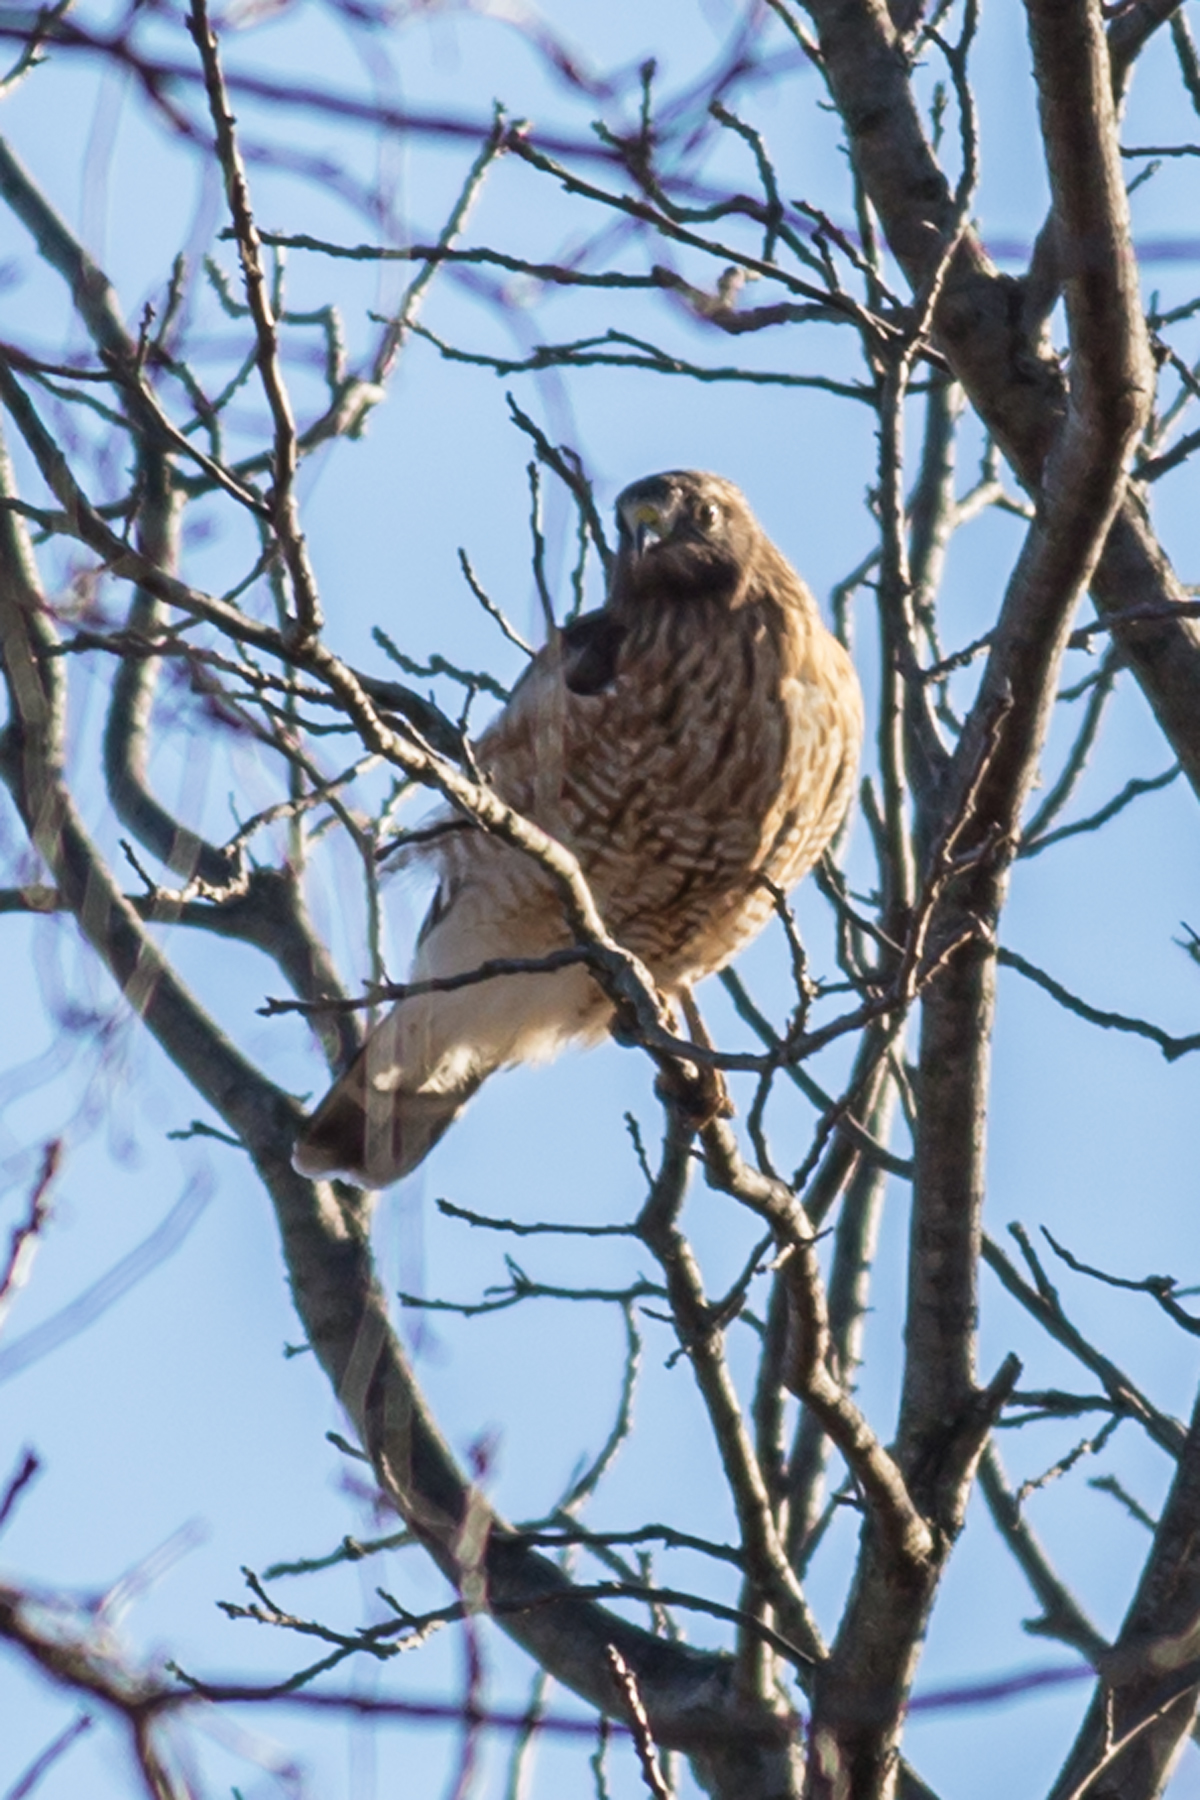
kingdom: Animalia
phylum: Chordata
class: Aves
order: Accipitriformes
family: Accipitridae
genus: Buteo
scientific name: Buteo lineatus
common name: Red-shouldered hawk
